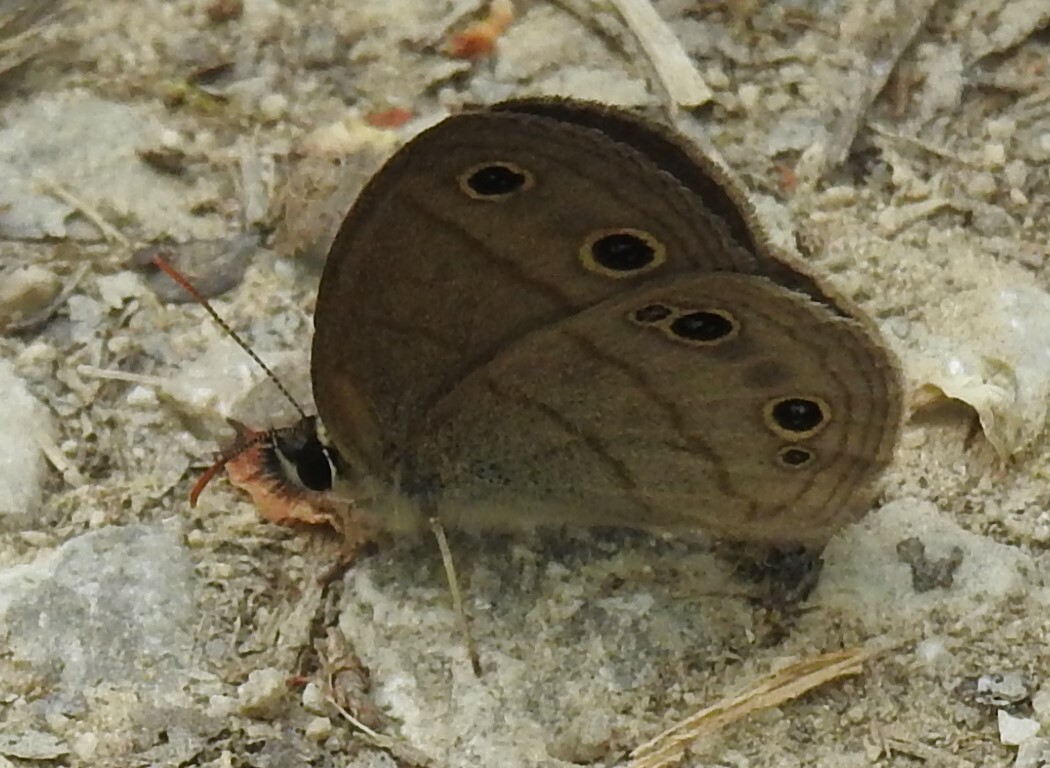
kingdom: Animalia
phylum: Arthropoda
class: Insecta
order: Lepidoptera
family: Nymphalidae
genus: Euptychia
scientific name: Euptychia cymela
